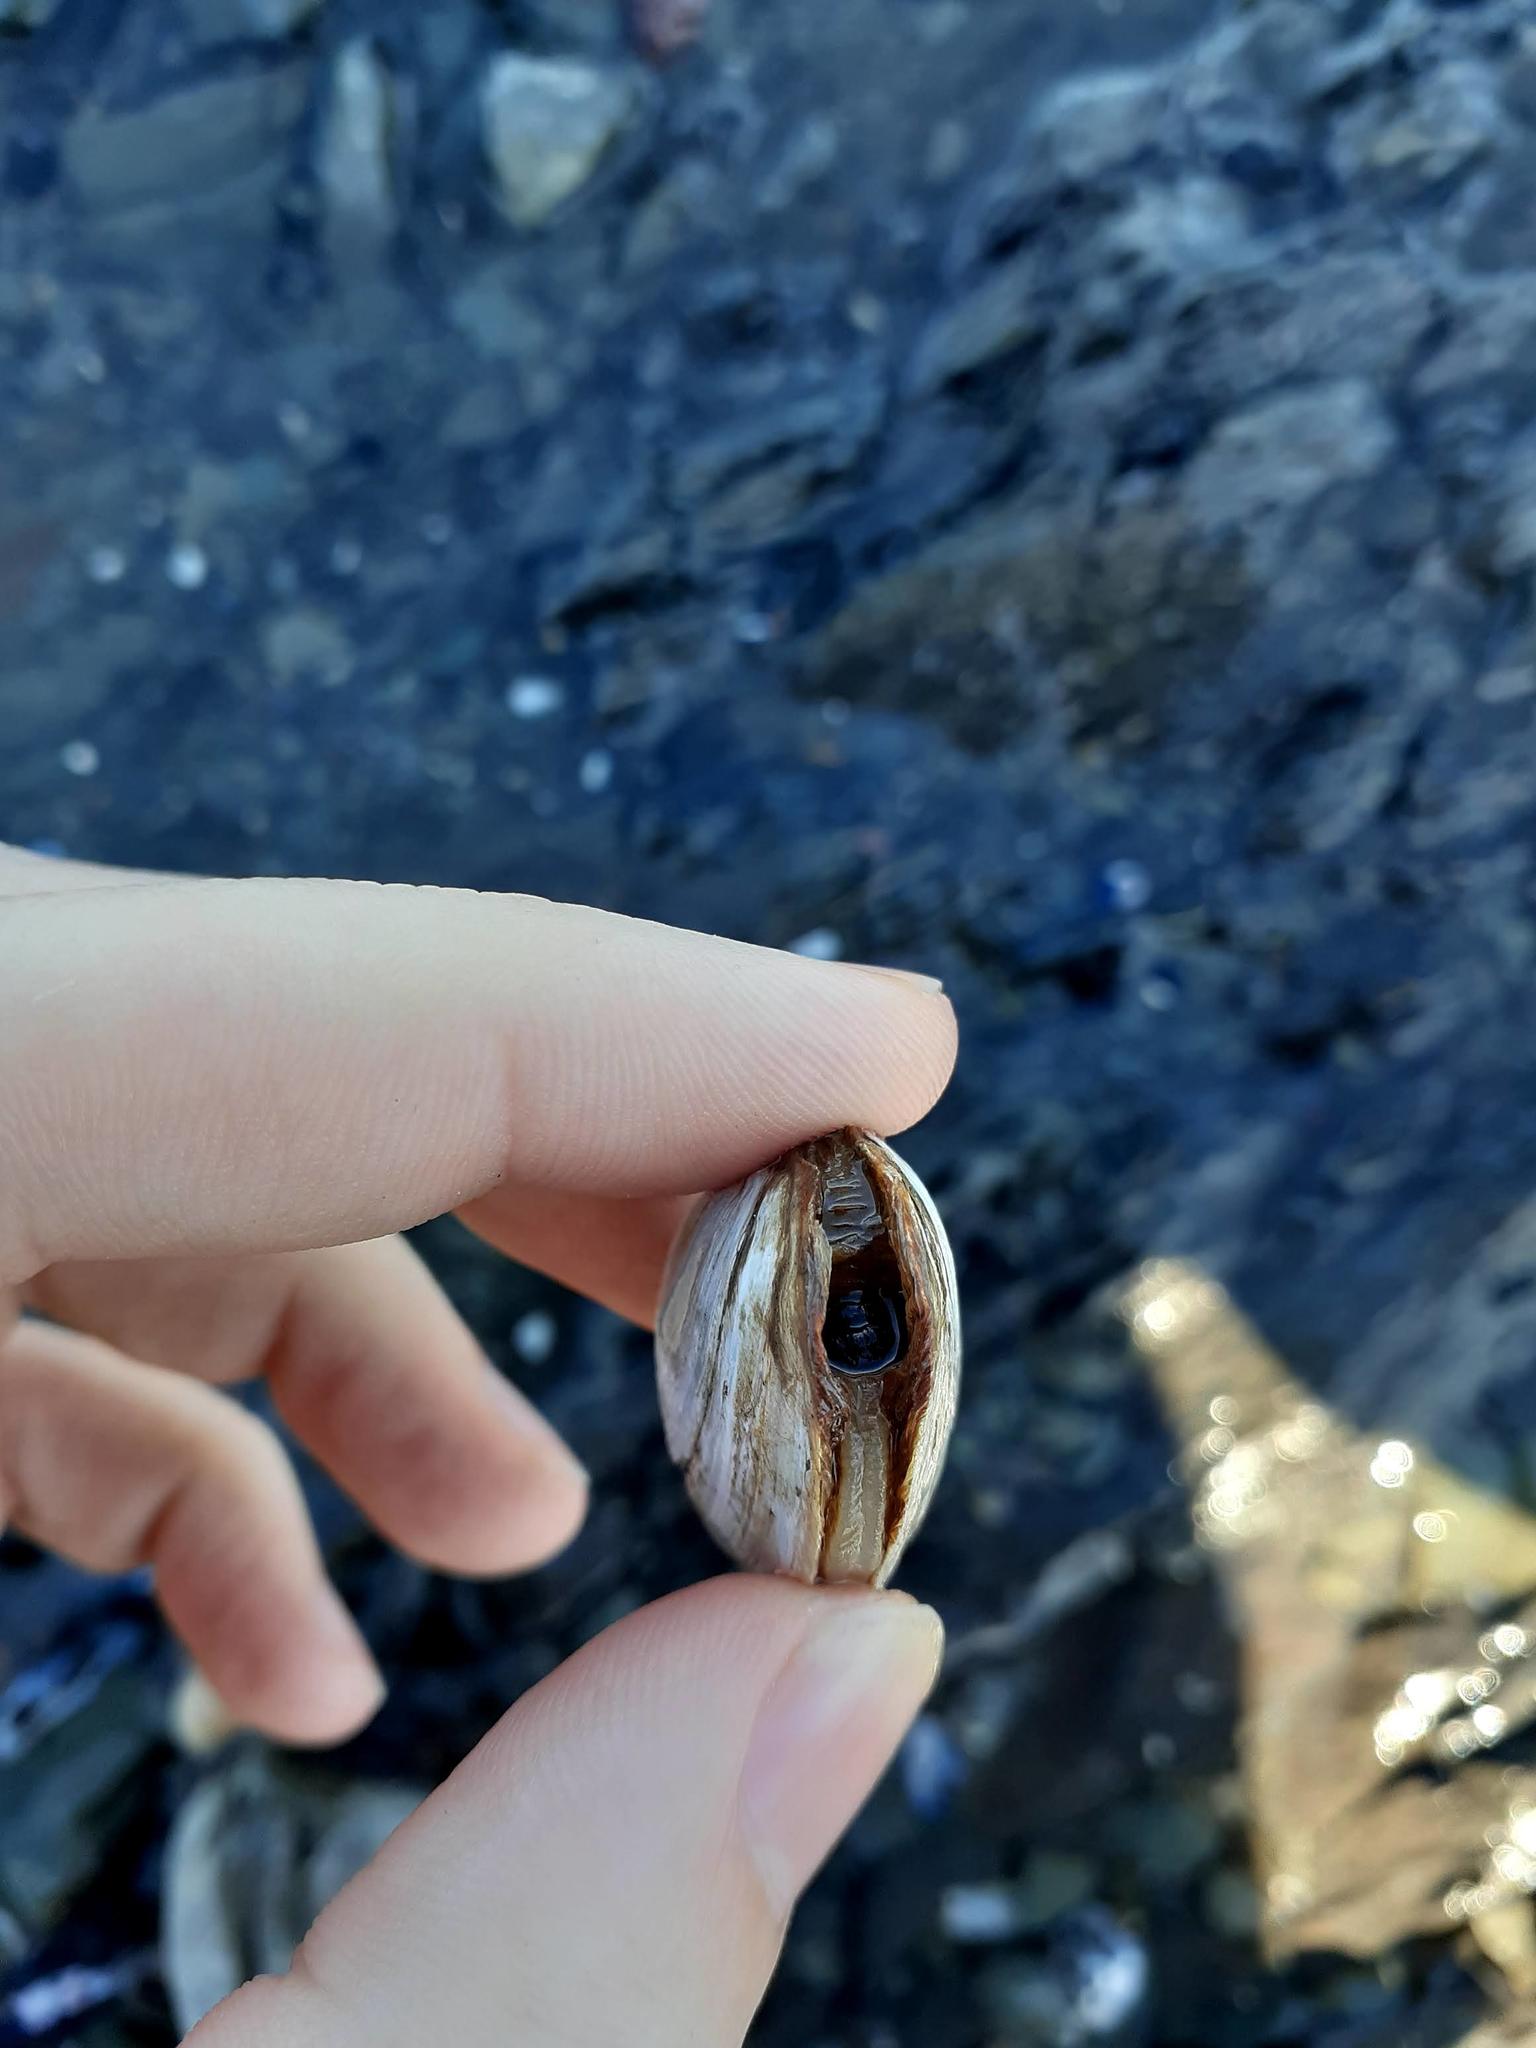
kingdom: Animalia
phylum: Mollusca
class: Bivalvia
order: Myida
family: Myidae
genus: Mya
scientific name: Mya arenaria
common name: Soft-shelled clam
